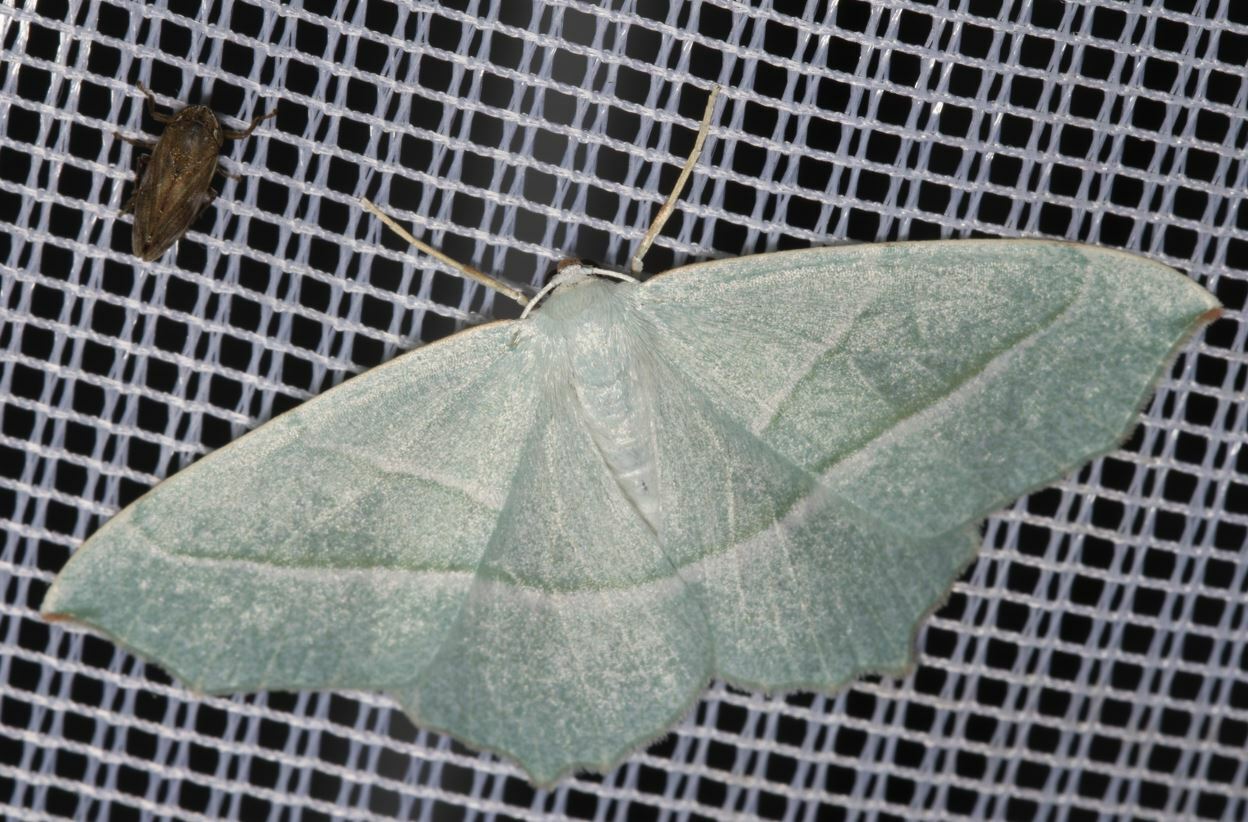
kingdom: Animalia
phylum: Arthropoda
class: Insecta
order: Lepidoptera
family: Geometridae
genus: Campaea
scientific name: Campaea margaritaria
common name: Light emerald
